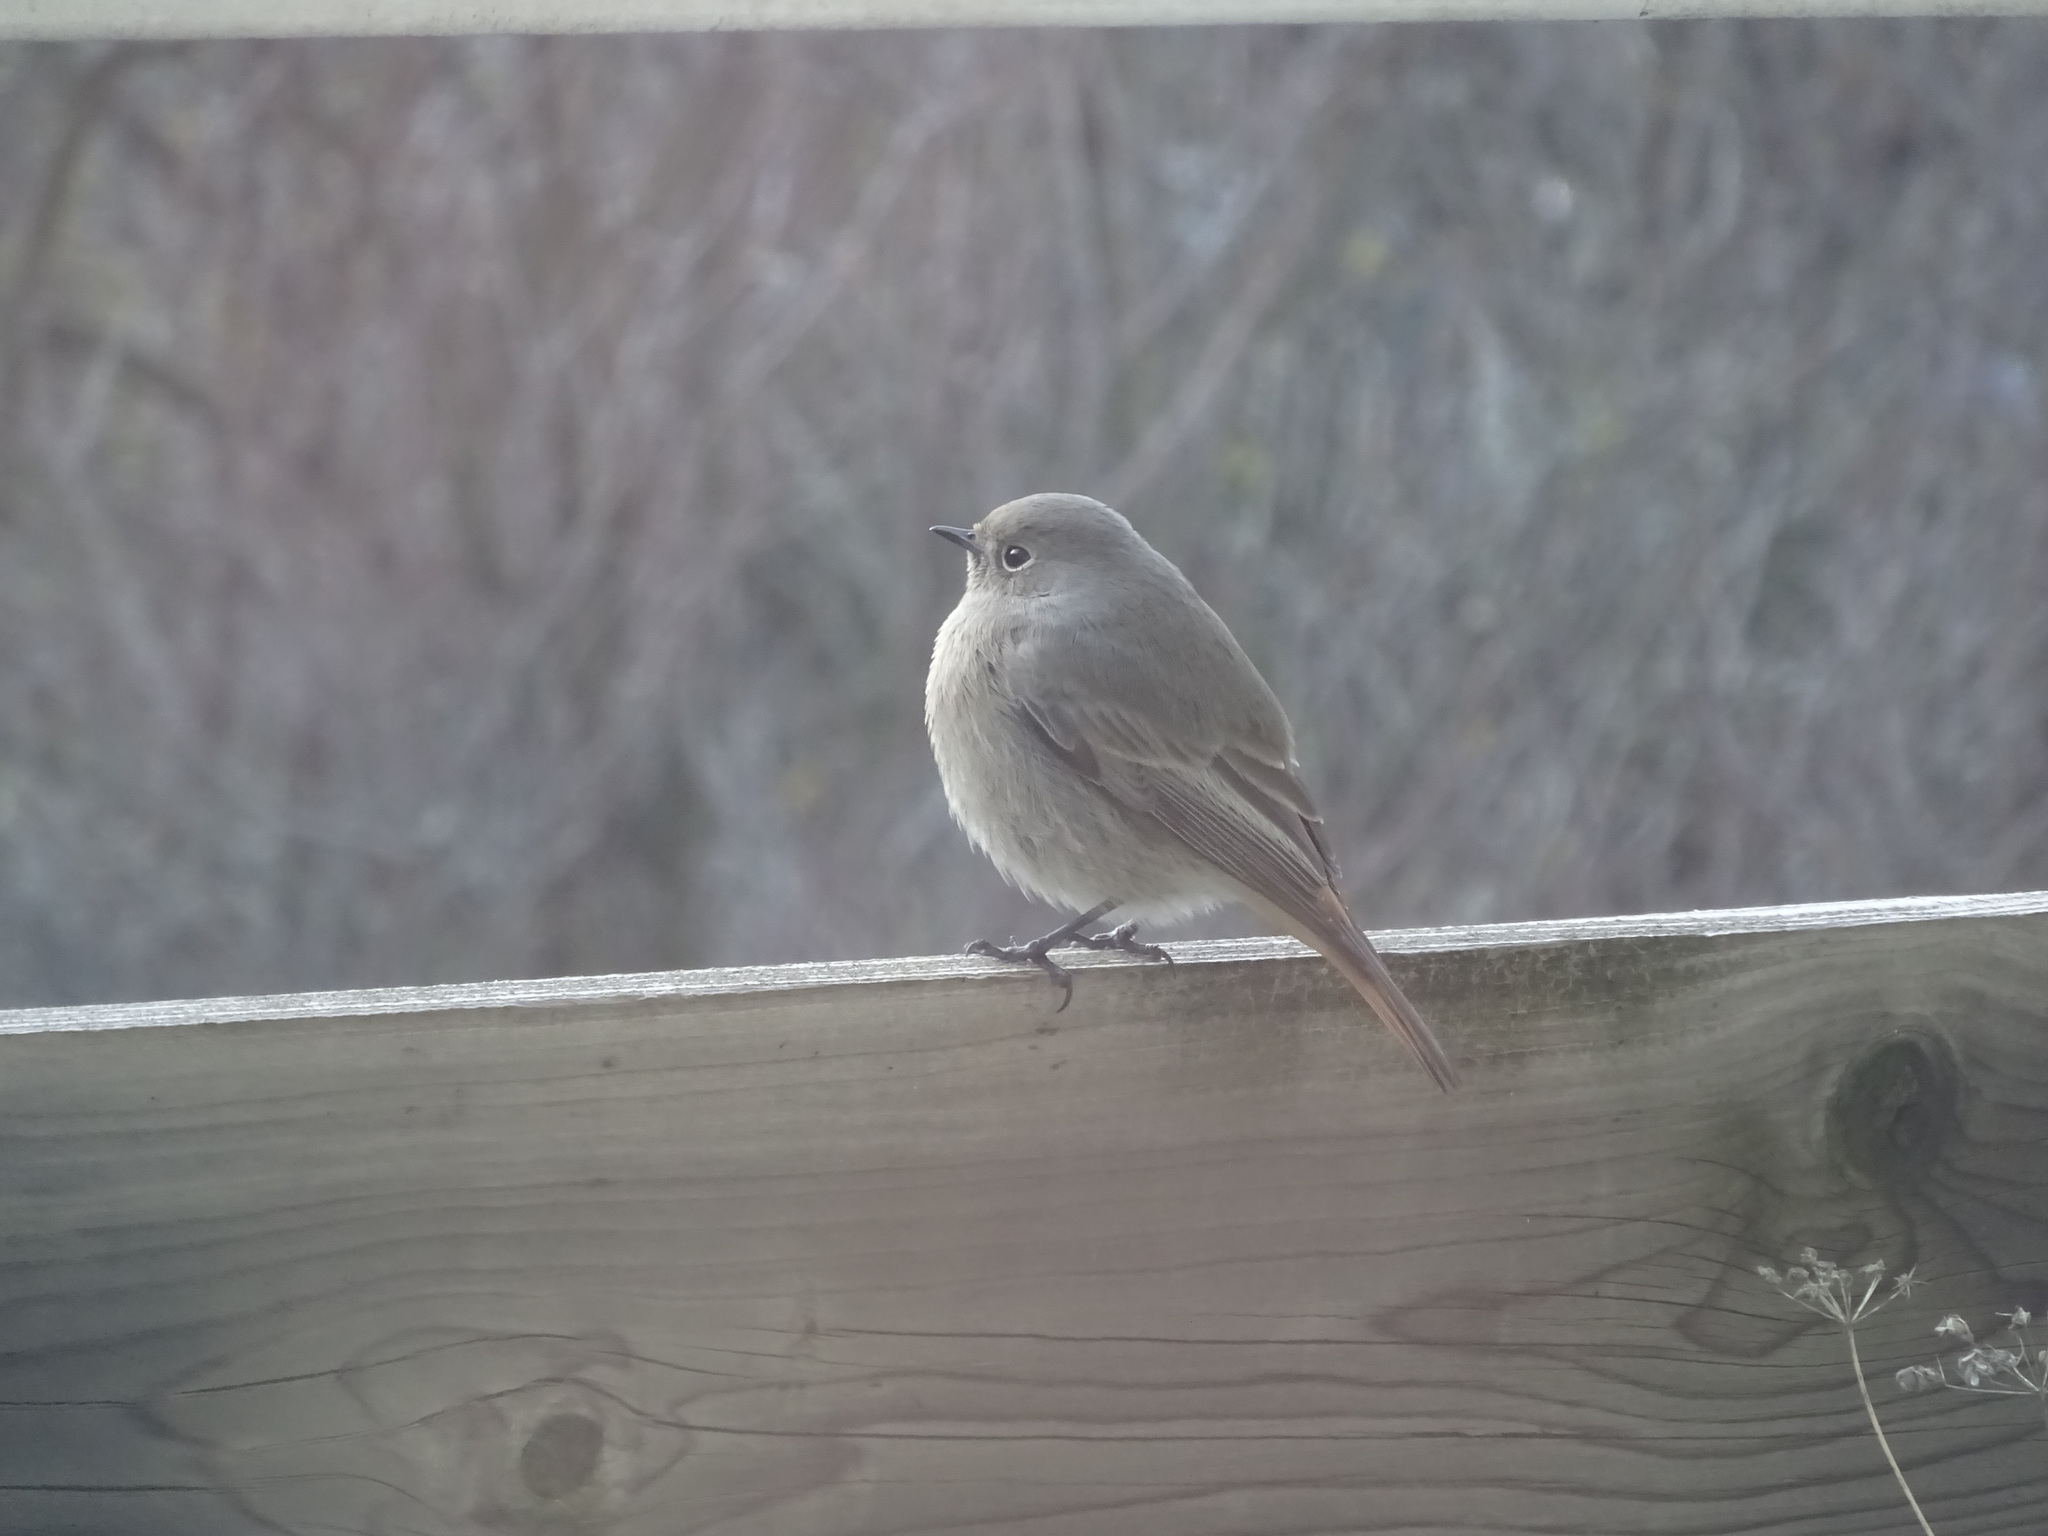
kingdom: Animalia
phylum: Chordata
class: Aves
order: Passeriformes
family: Muscicapidae
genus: Phoenicurus
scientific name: Phoenicurus ochruros
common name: Black redstart
